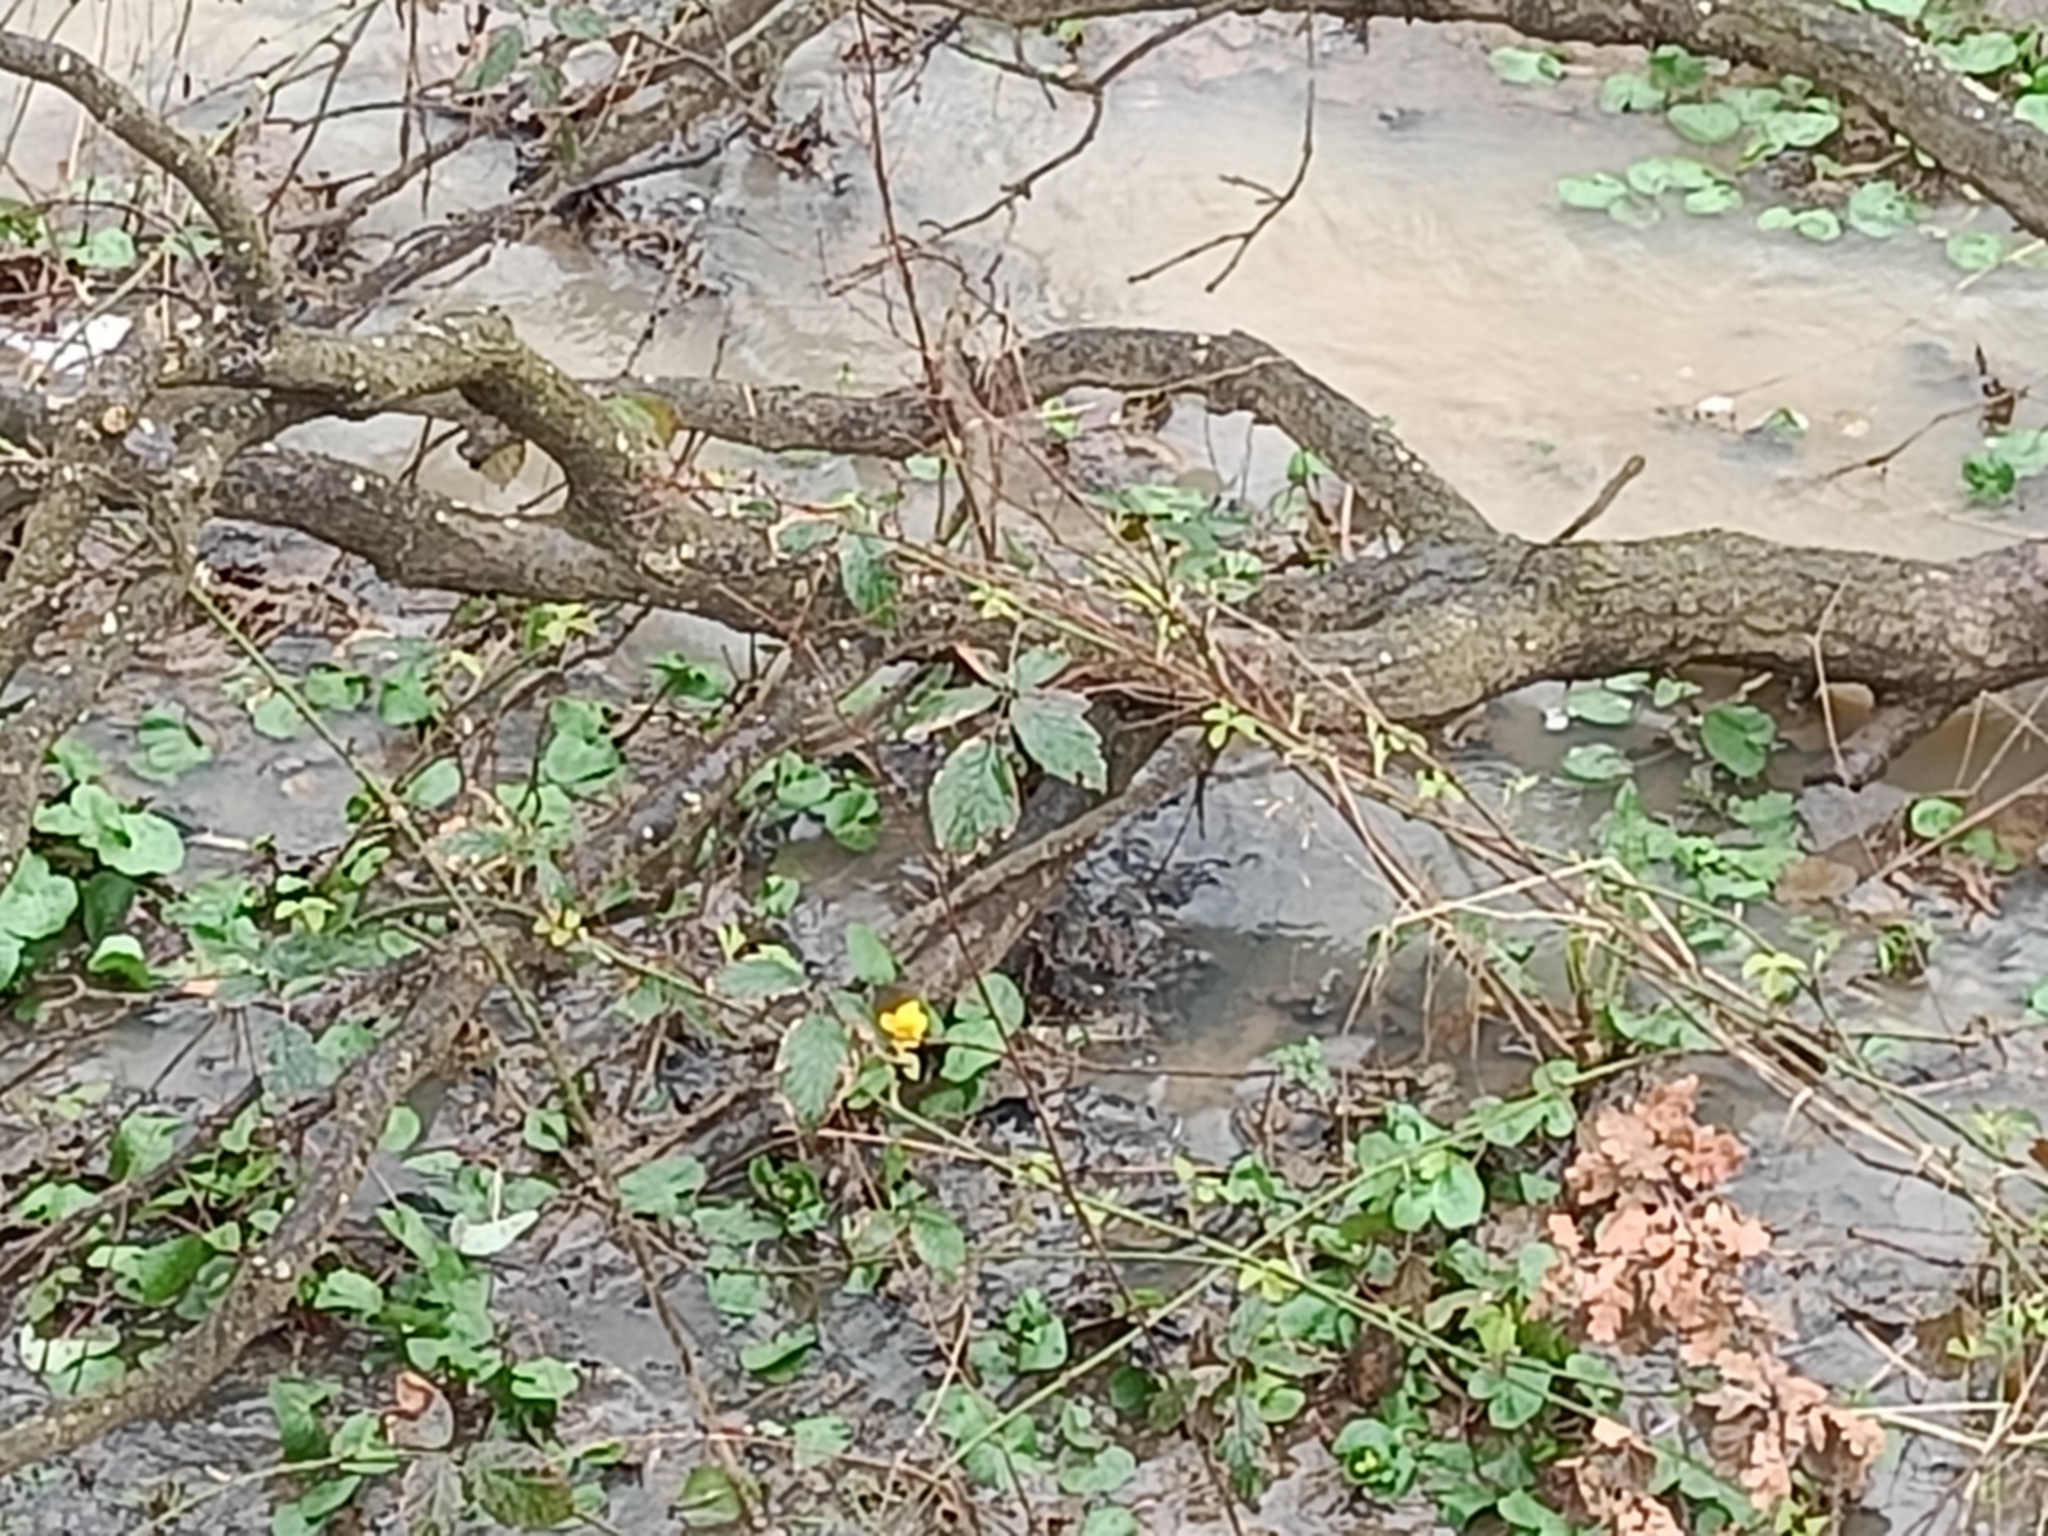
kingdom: Plantae
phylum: Tracheophyta
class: Magnoliopsida
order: Ranunculales
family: Ranunculaceae
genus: Caltha
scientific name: Caltha palustris
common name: Marsh marigold
